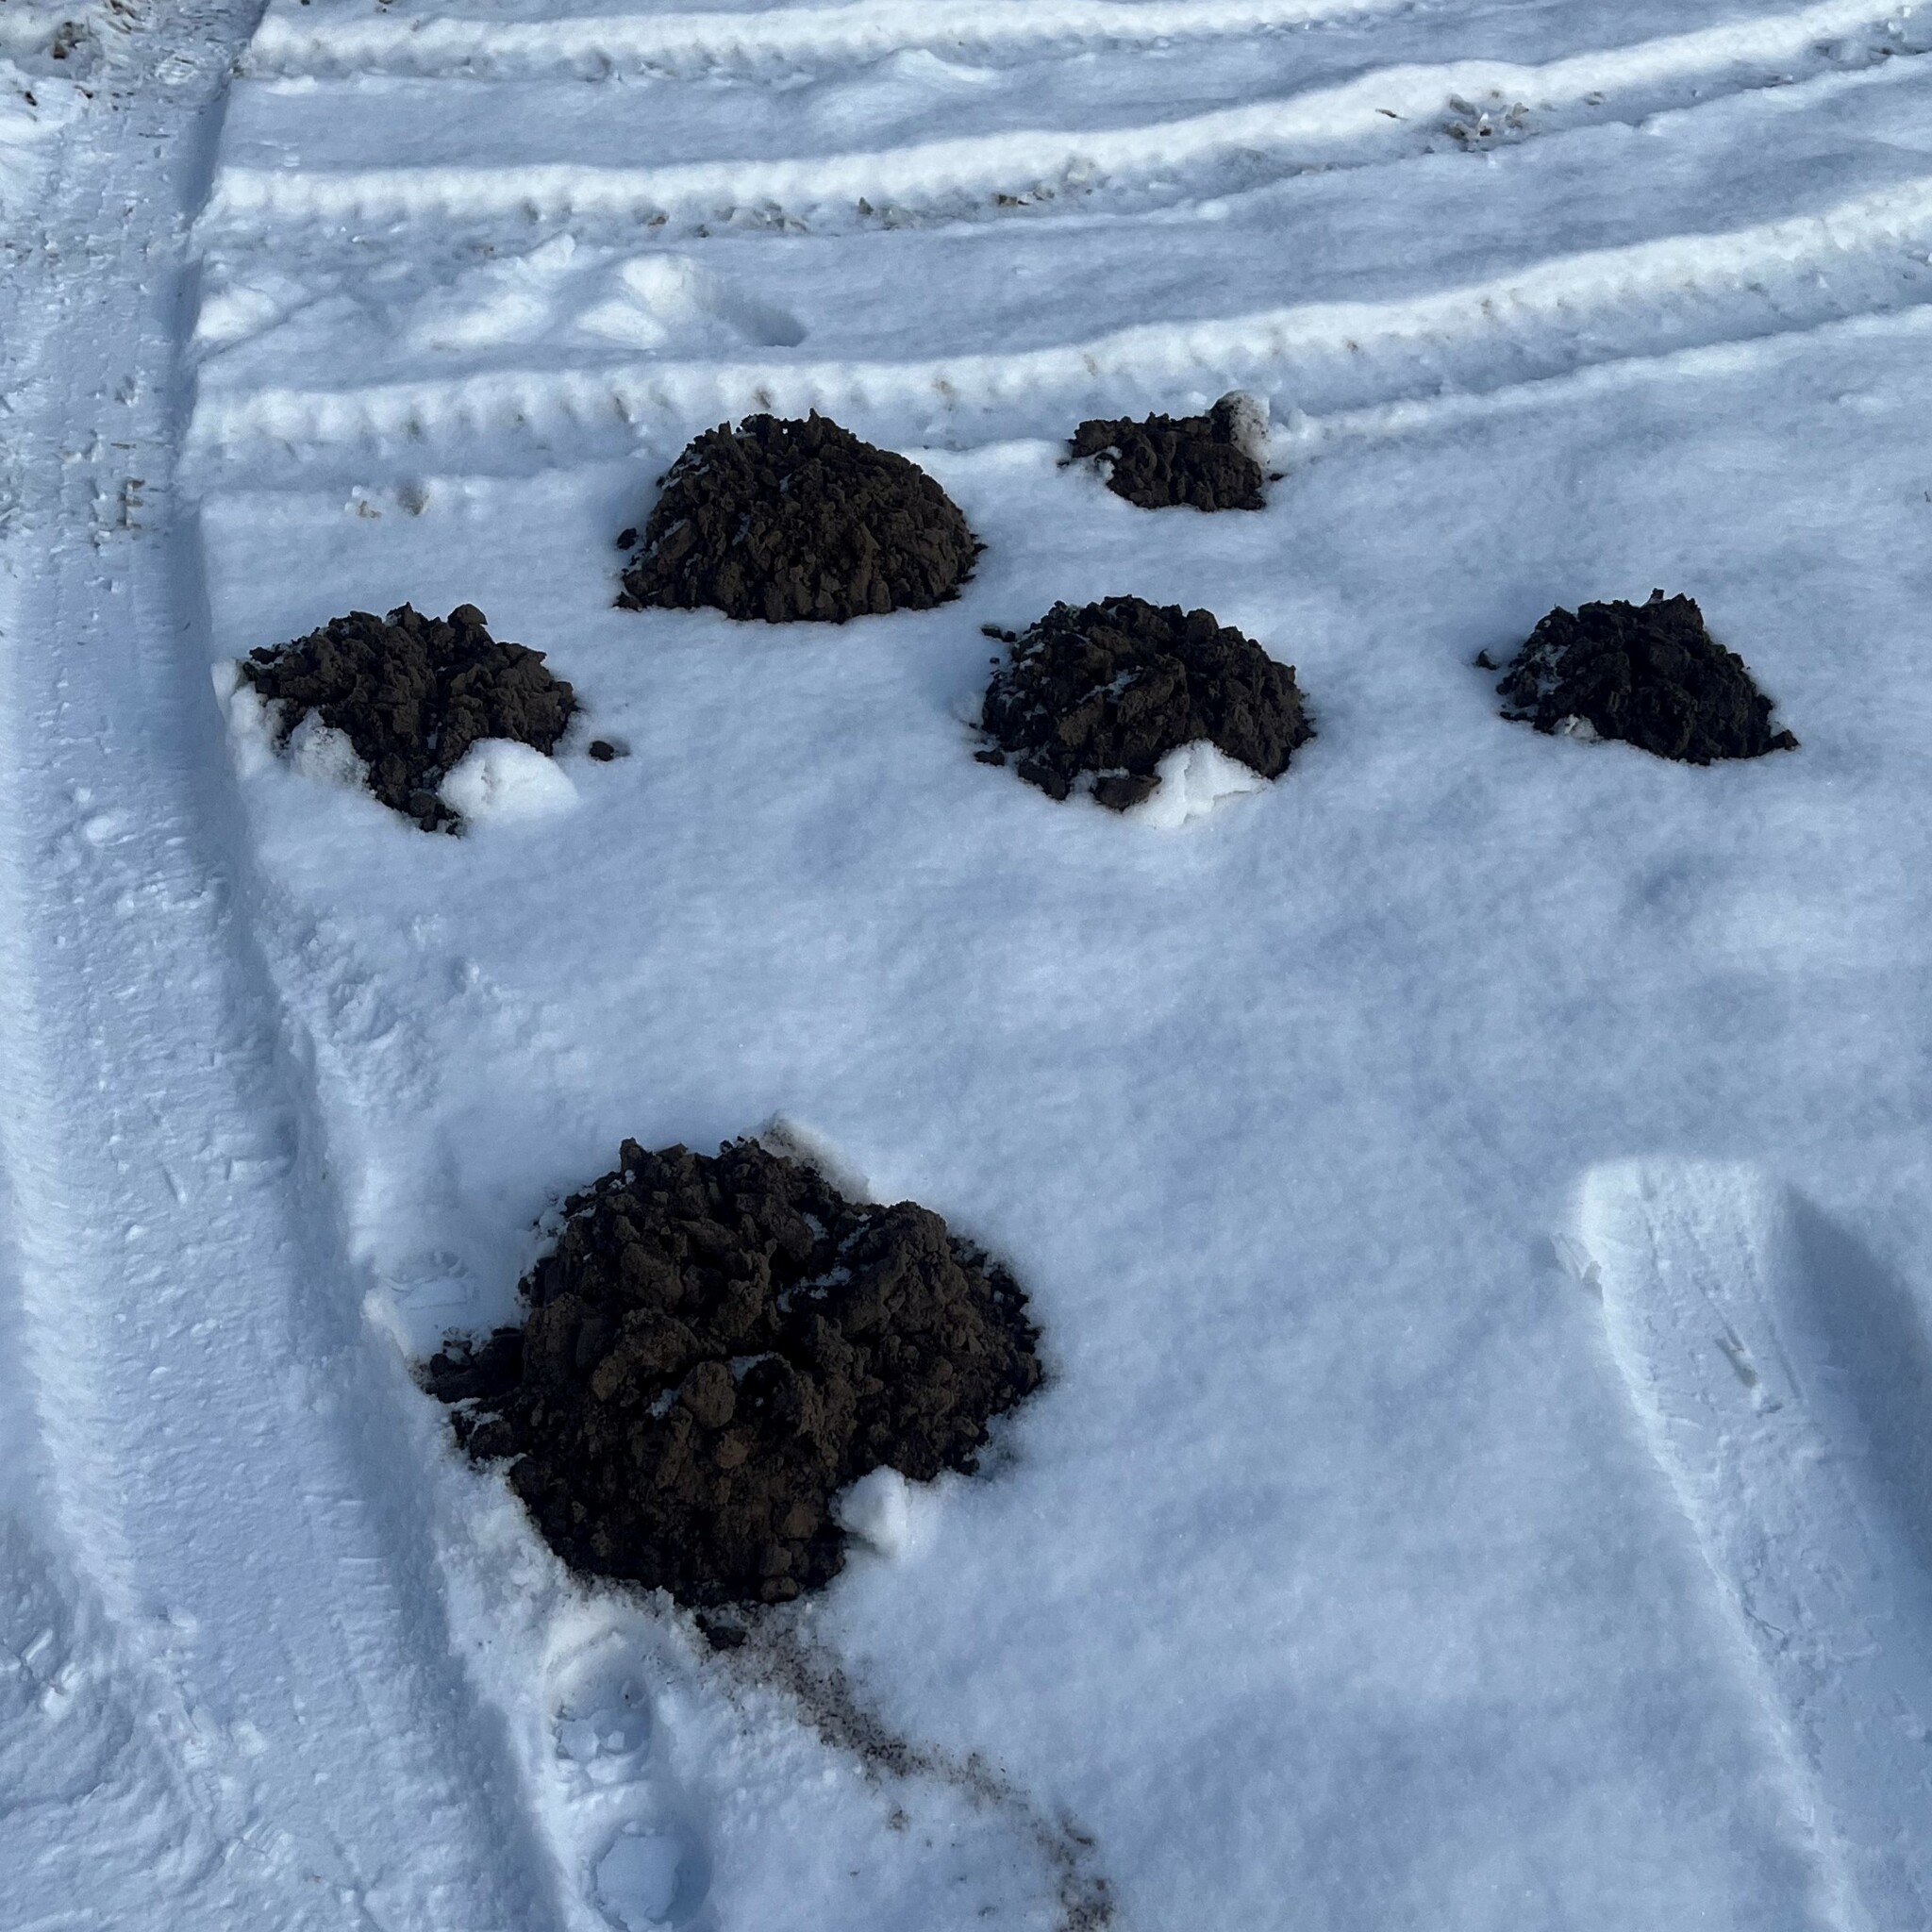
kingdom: Animalia
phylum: Chordata
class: Mammalia
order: Soricomorpha
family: Talpidae
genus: Talpa
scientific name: Talpa europaea
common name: European mole
